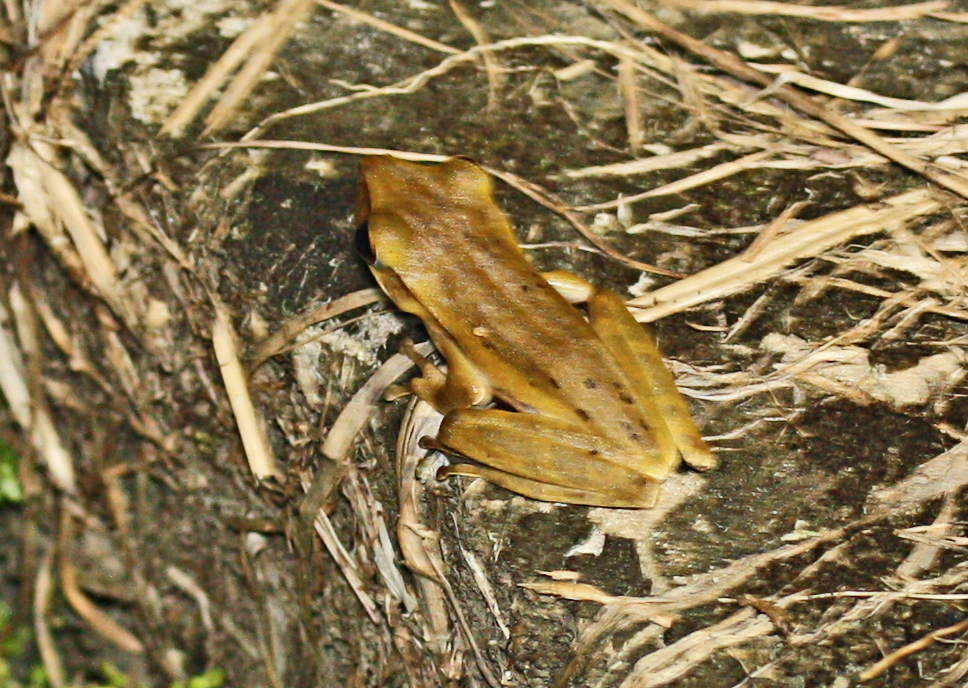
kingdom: Animalia
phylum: Chordata
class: Amphibia
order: Anura
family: Rhacophoridae
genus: Polypedates
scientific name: Polypedates leucomystax
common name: Common tree frog/four-lined tree frog
